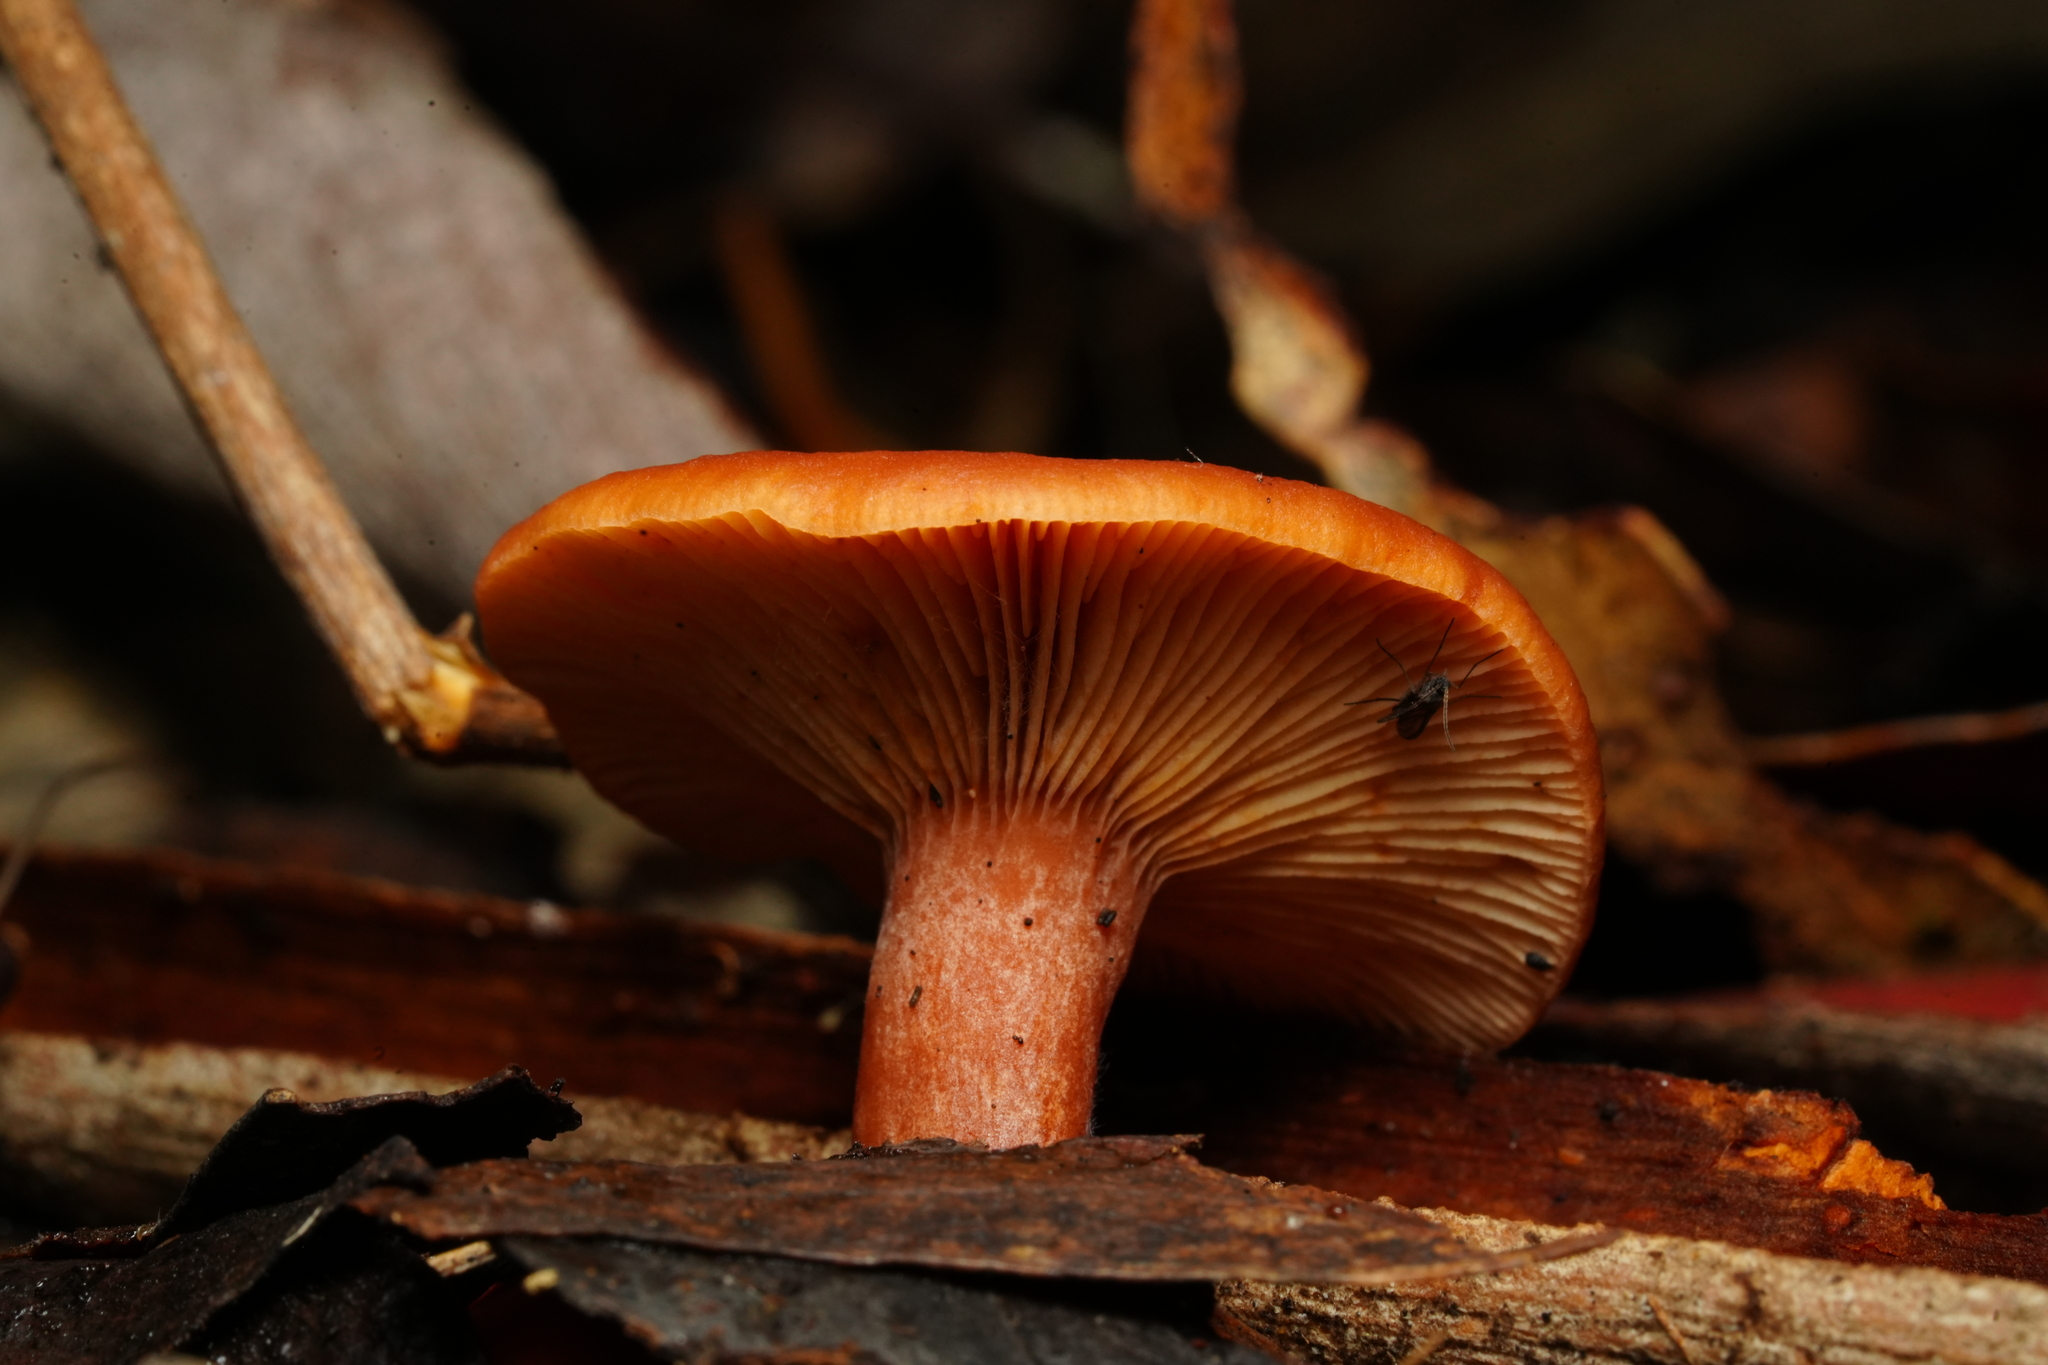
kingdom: Fungi
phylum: Basidiomycota
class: Agaricomycetes
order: Russulales
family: Russulaceae
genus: Lactarius
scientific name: Lactarius eucalypti
